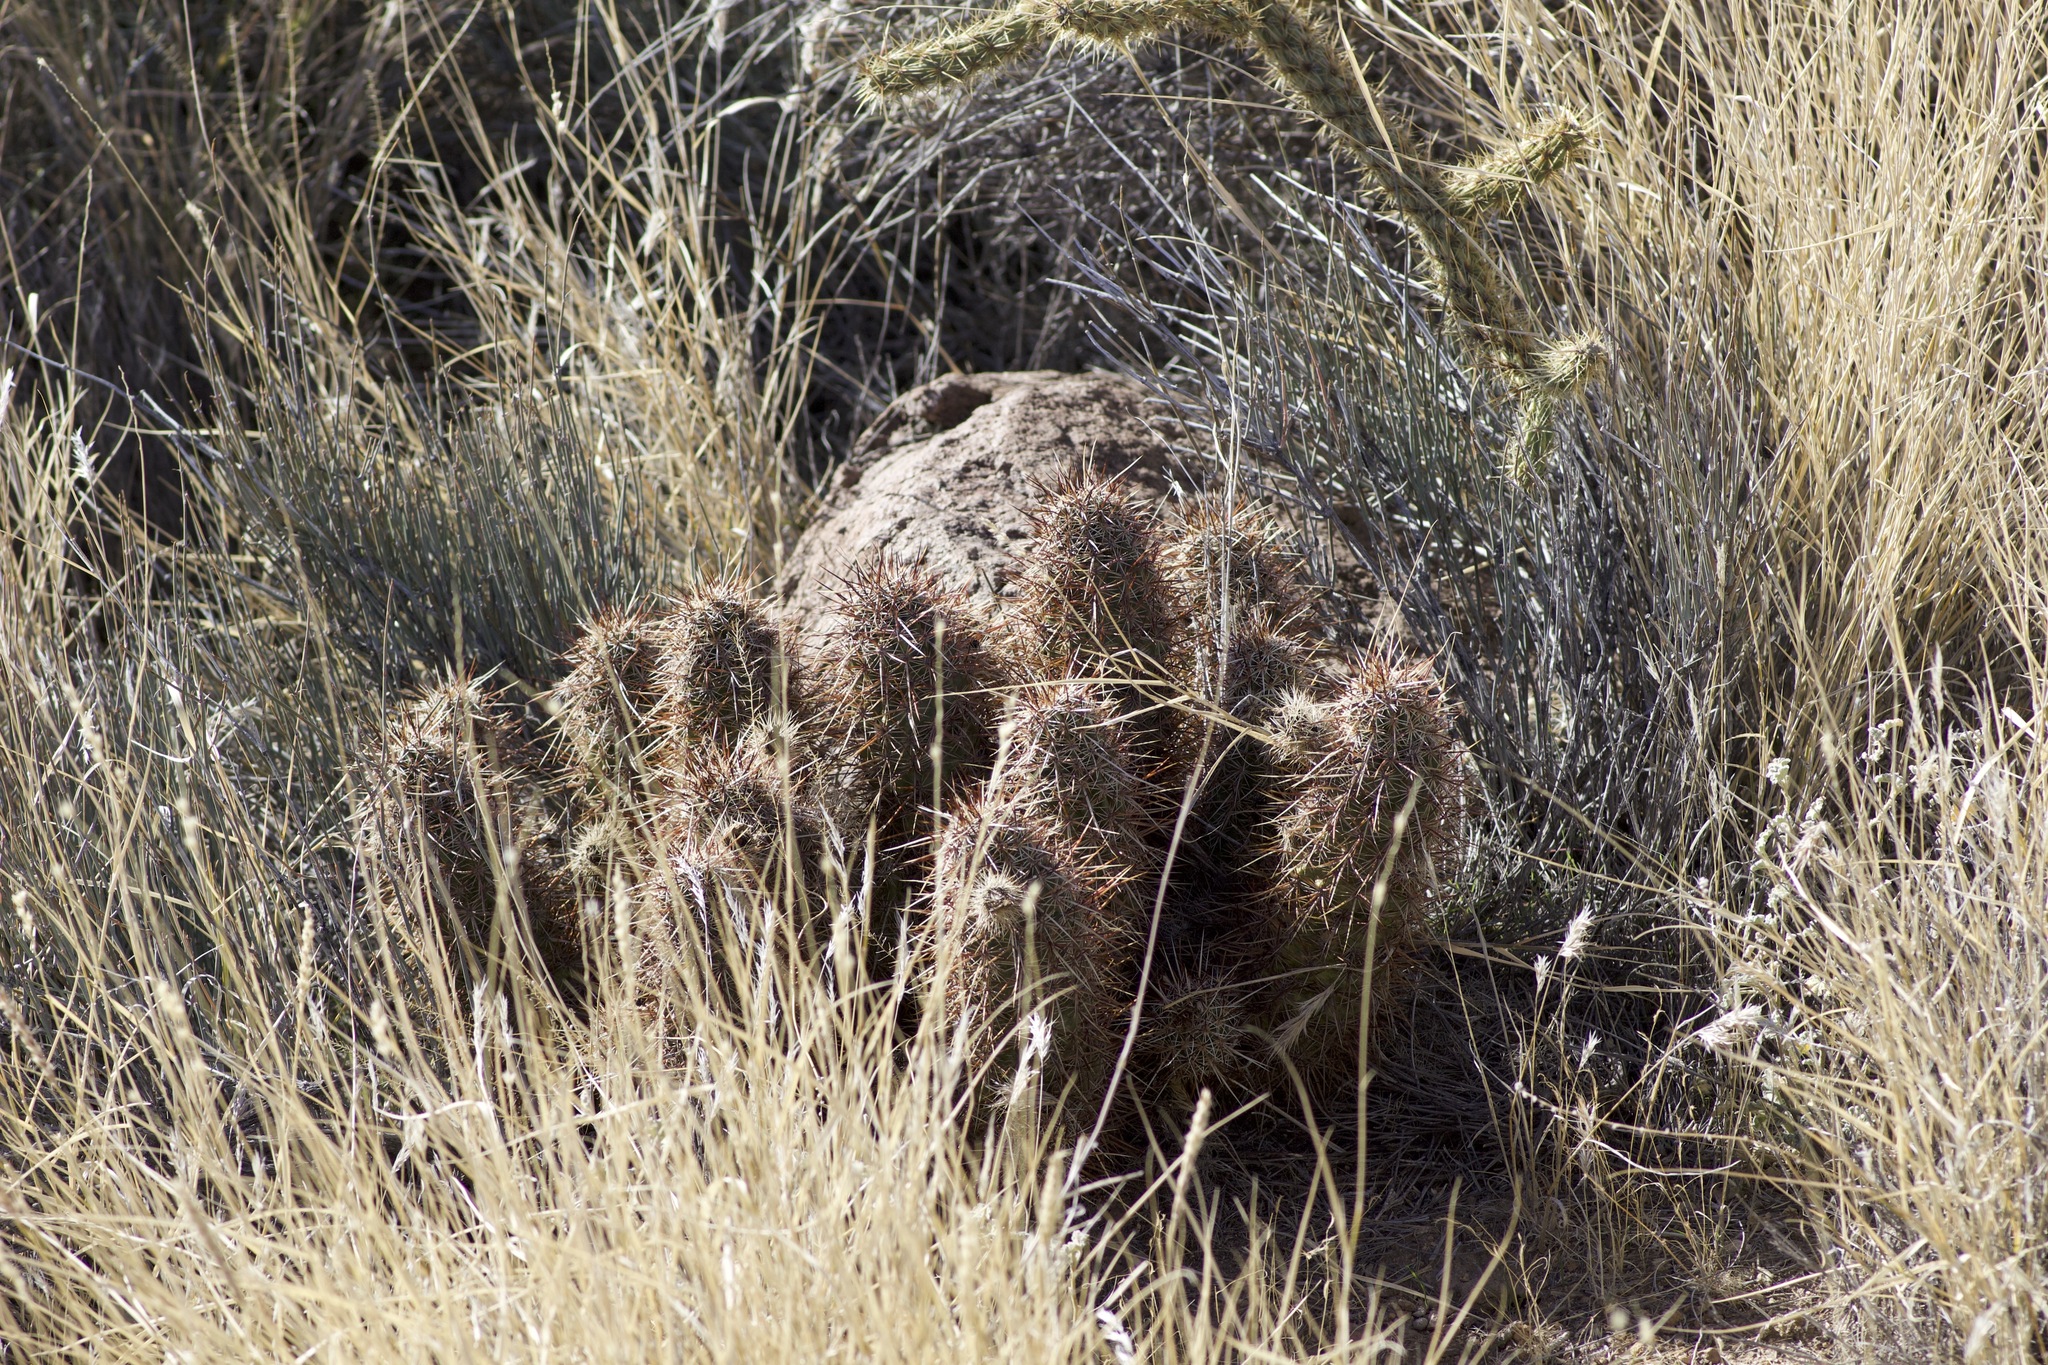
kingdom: Plantae
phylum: Tracheophyta
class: Magnoliopsida
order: Caryophyllales
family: Cactaceae
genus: Echinocereus
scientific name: Echinocereus engelmannii
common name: Engelmann's hedgehog cactus
